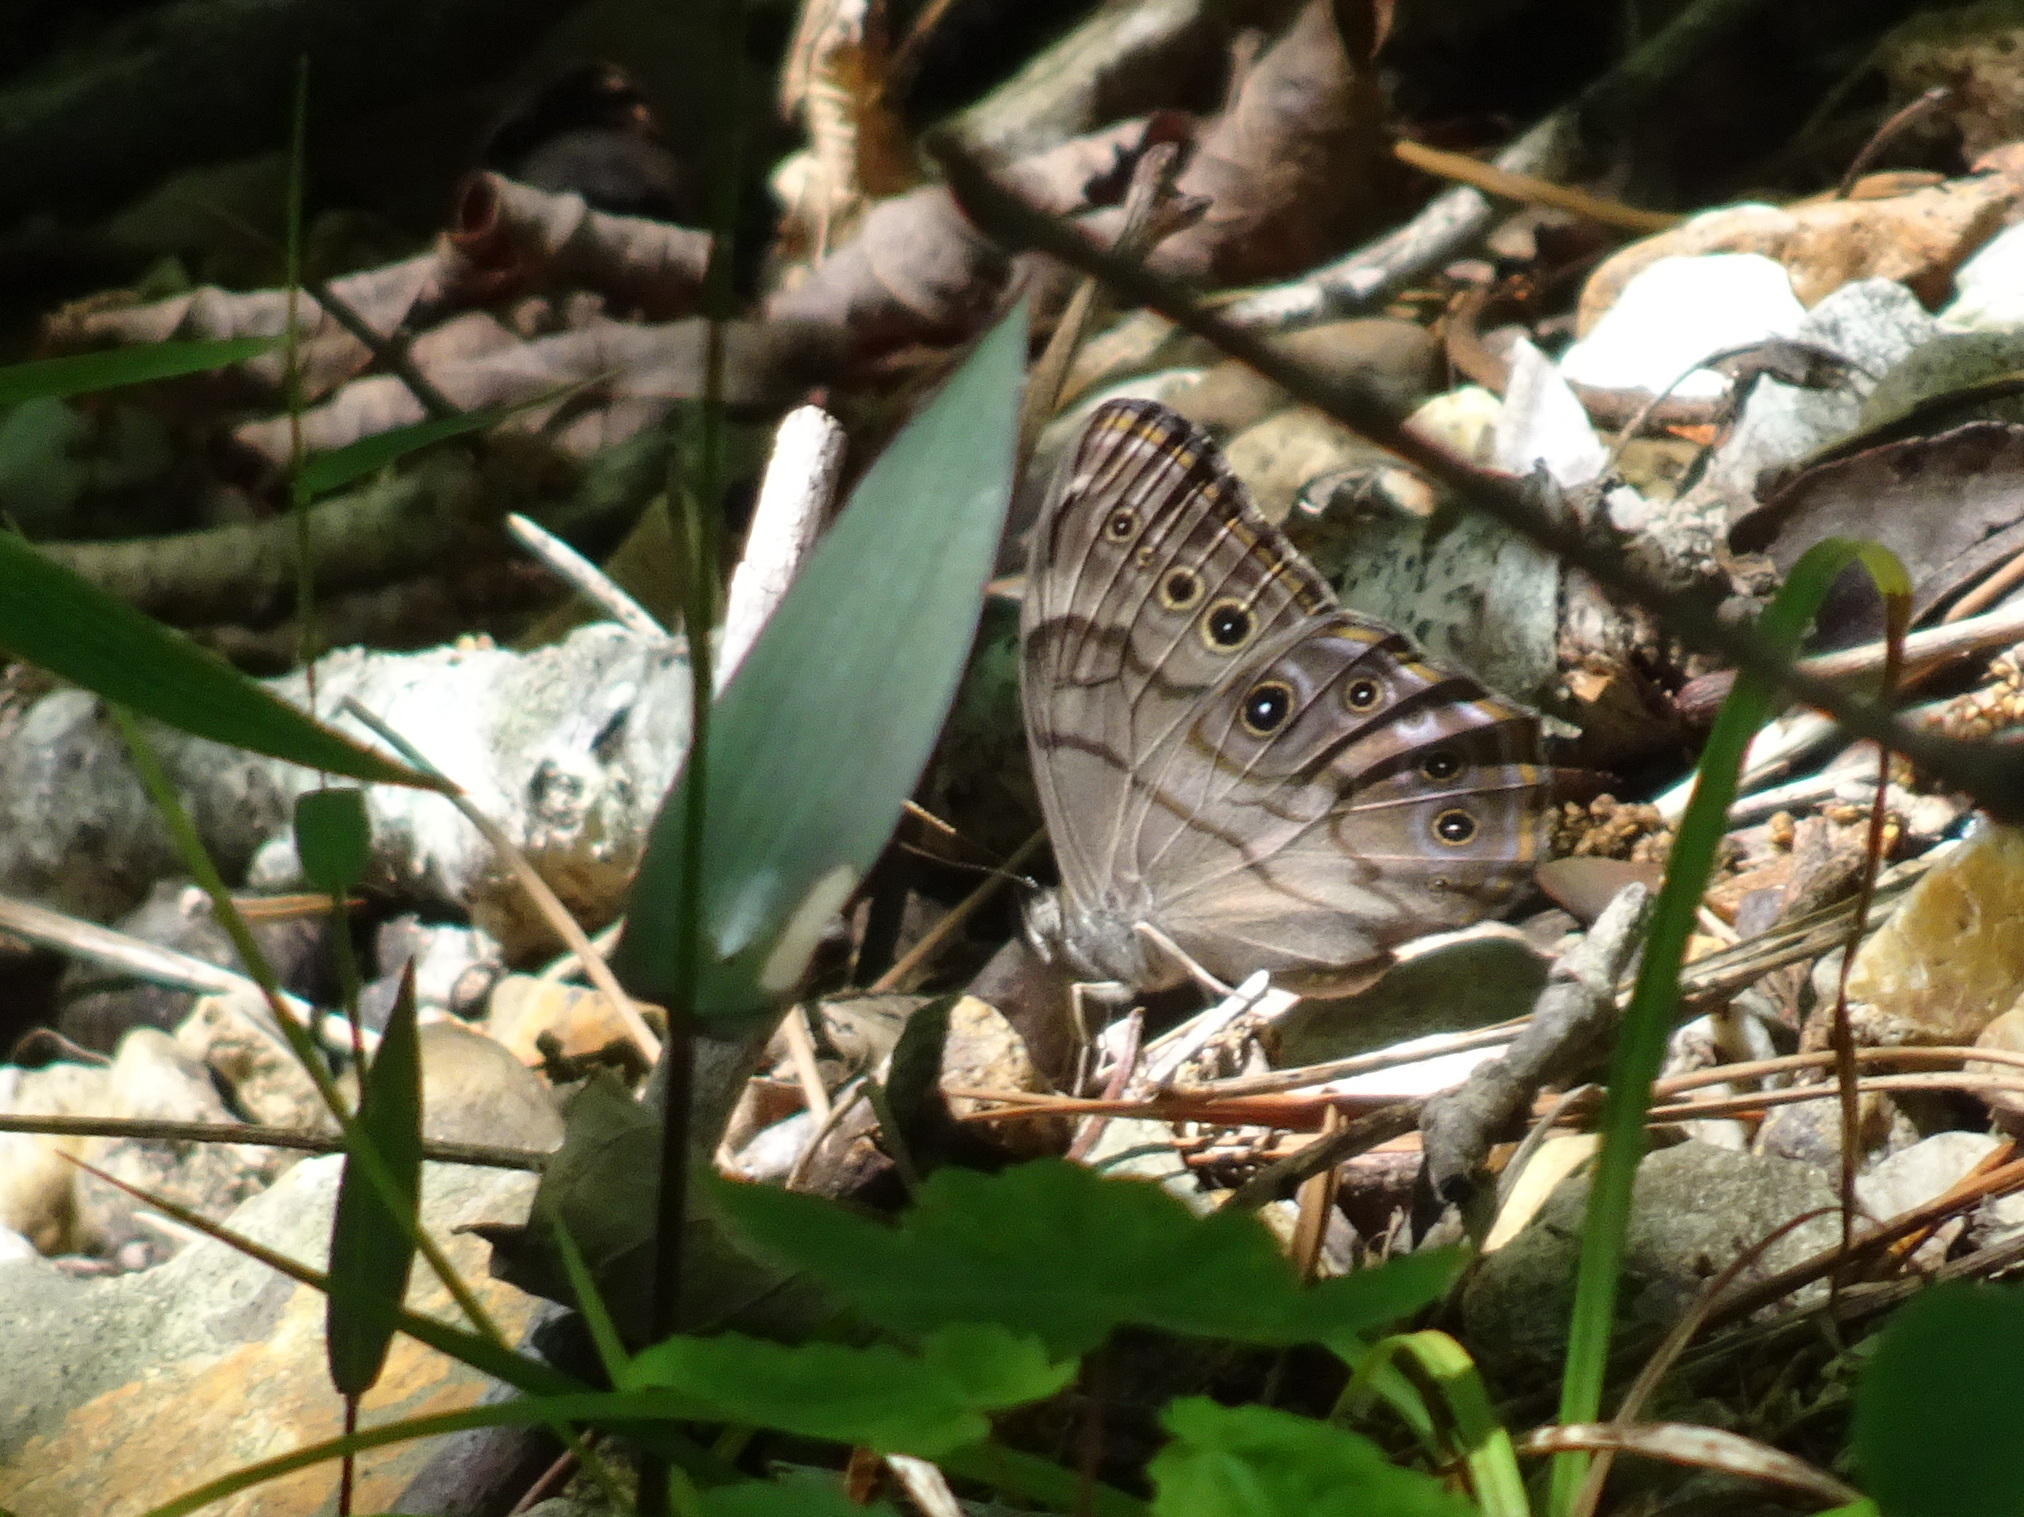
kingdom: Animalia
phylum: Arthropoda
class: Insecta
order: Lepidoptera
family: Nymphalidae
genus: Lethe
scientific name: Lethe anthedon
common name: Northern pearly-eye
